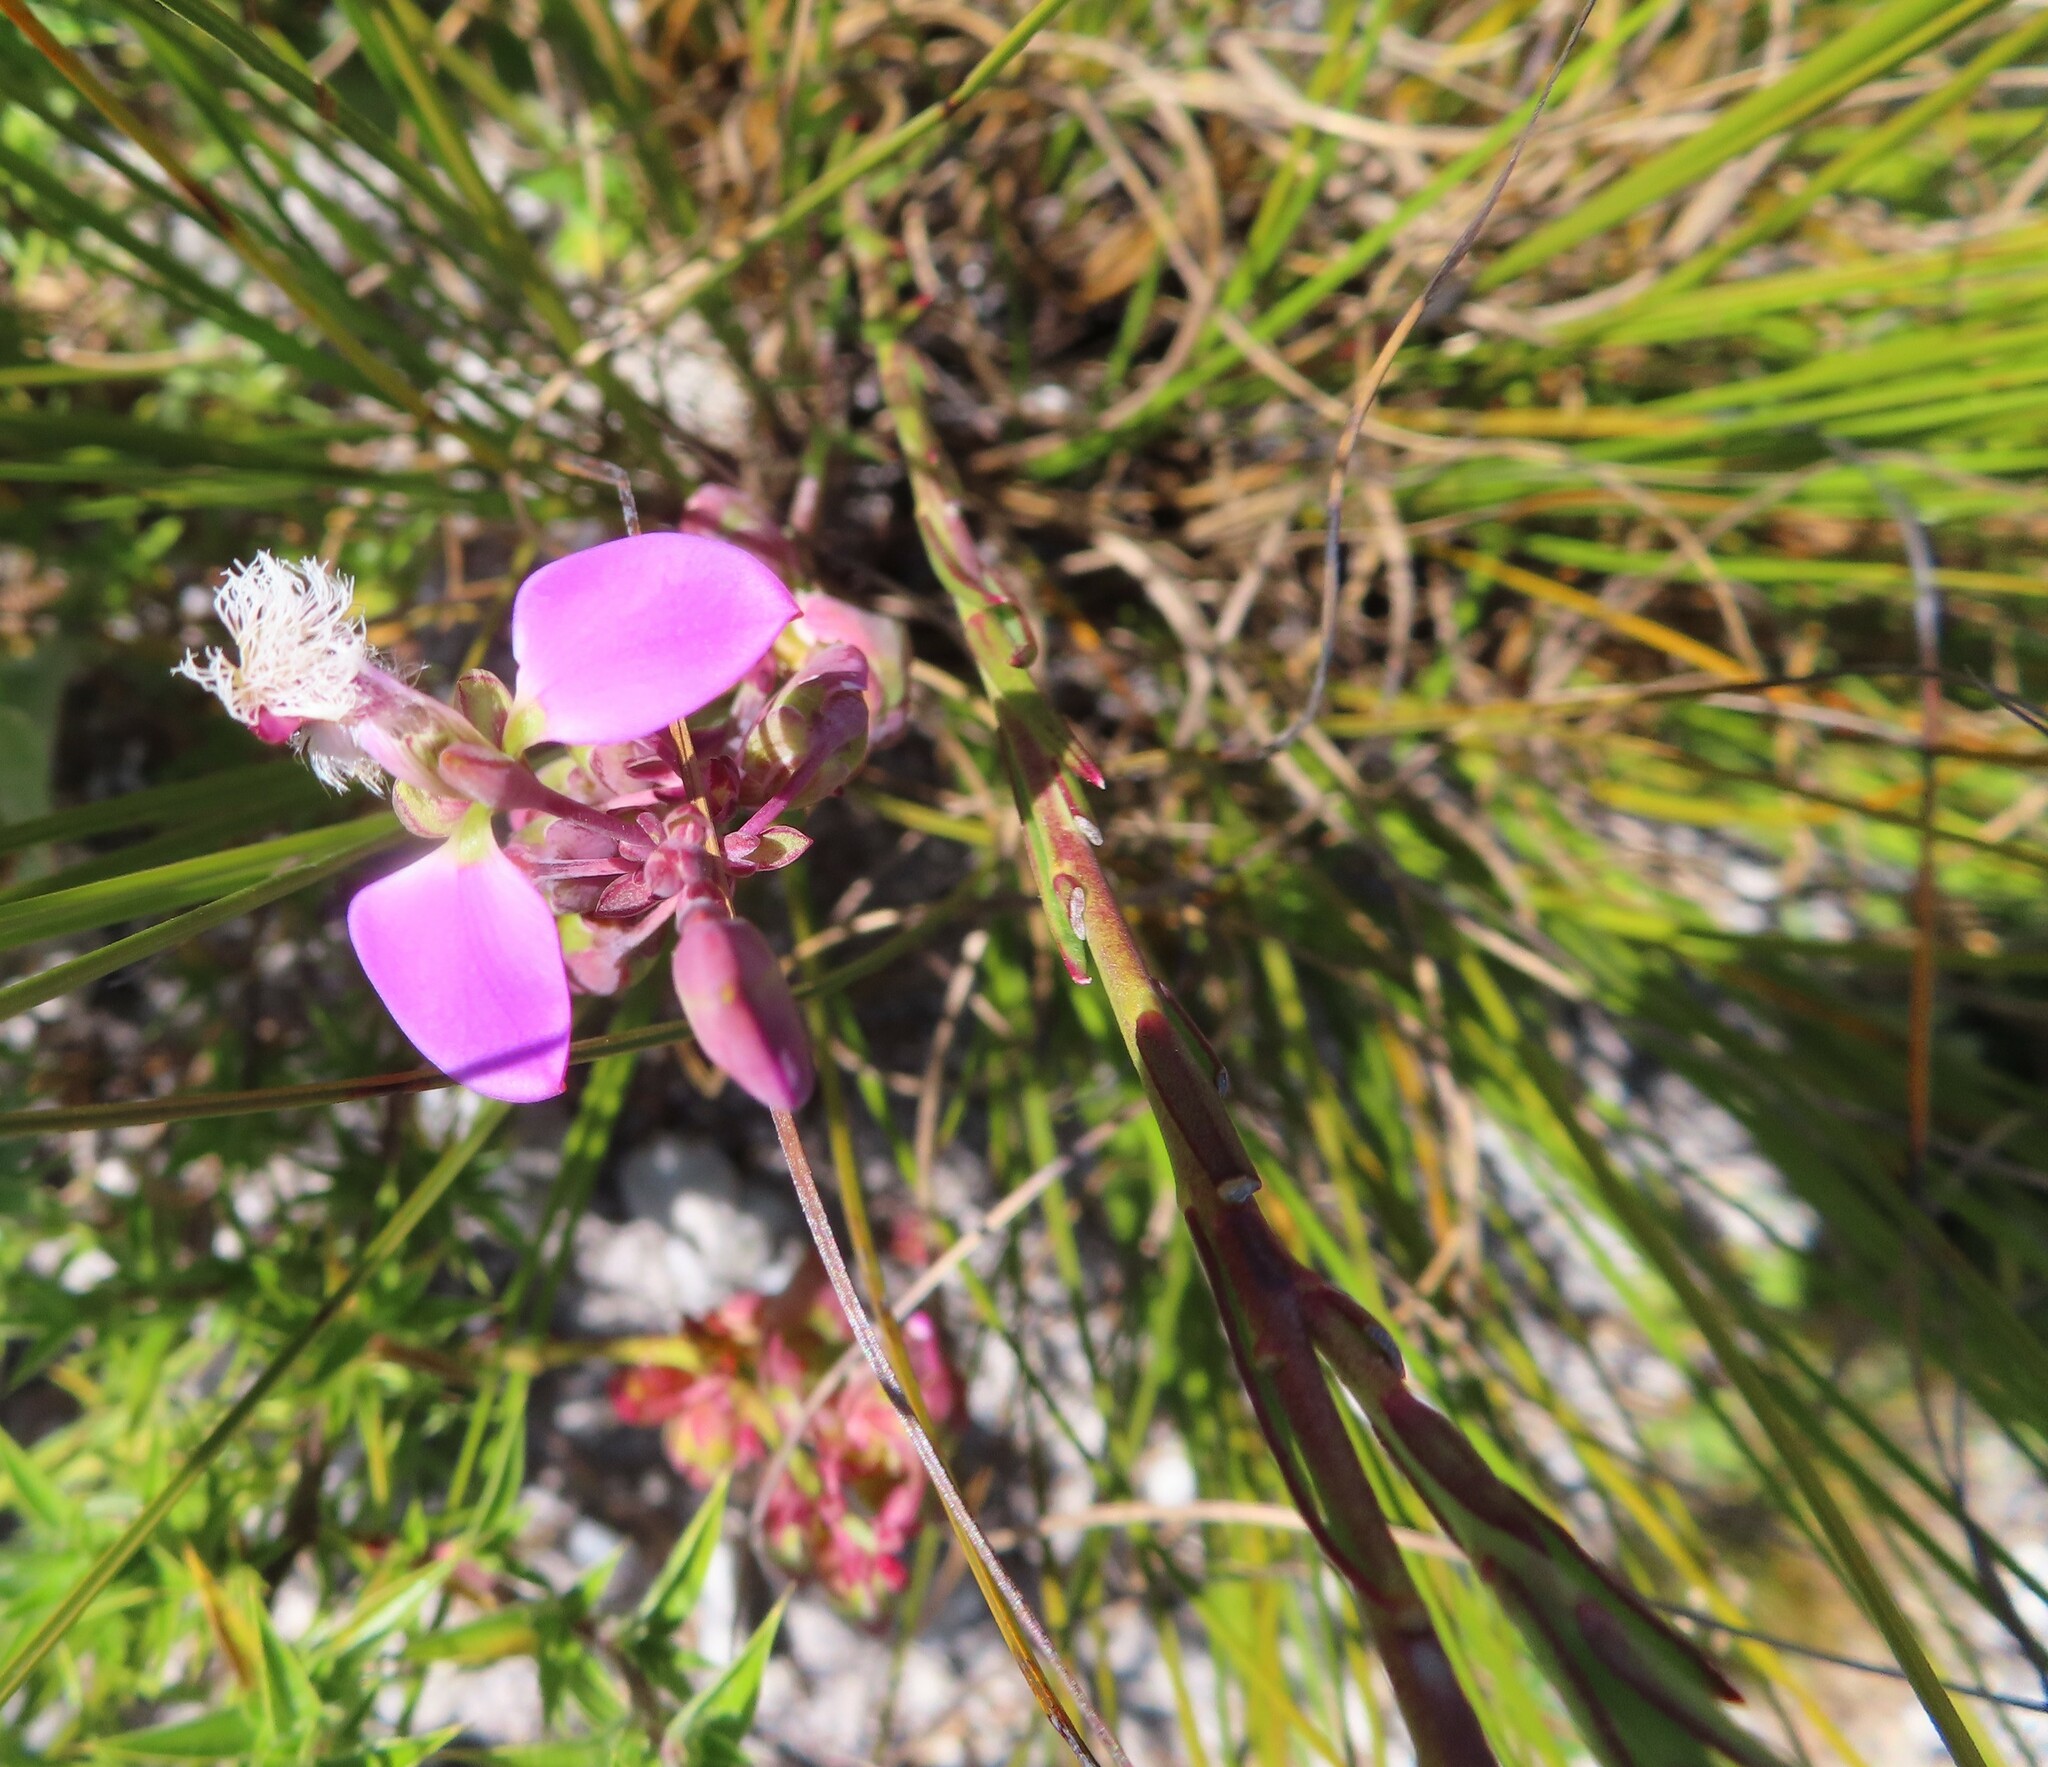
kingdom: Plantae
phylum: Tracheophyta
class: Magnoliopsida
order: Fabales
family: Polygalaceae
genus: Polygala
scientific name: Polygala bracteolata
